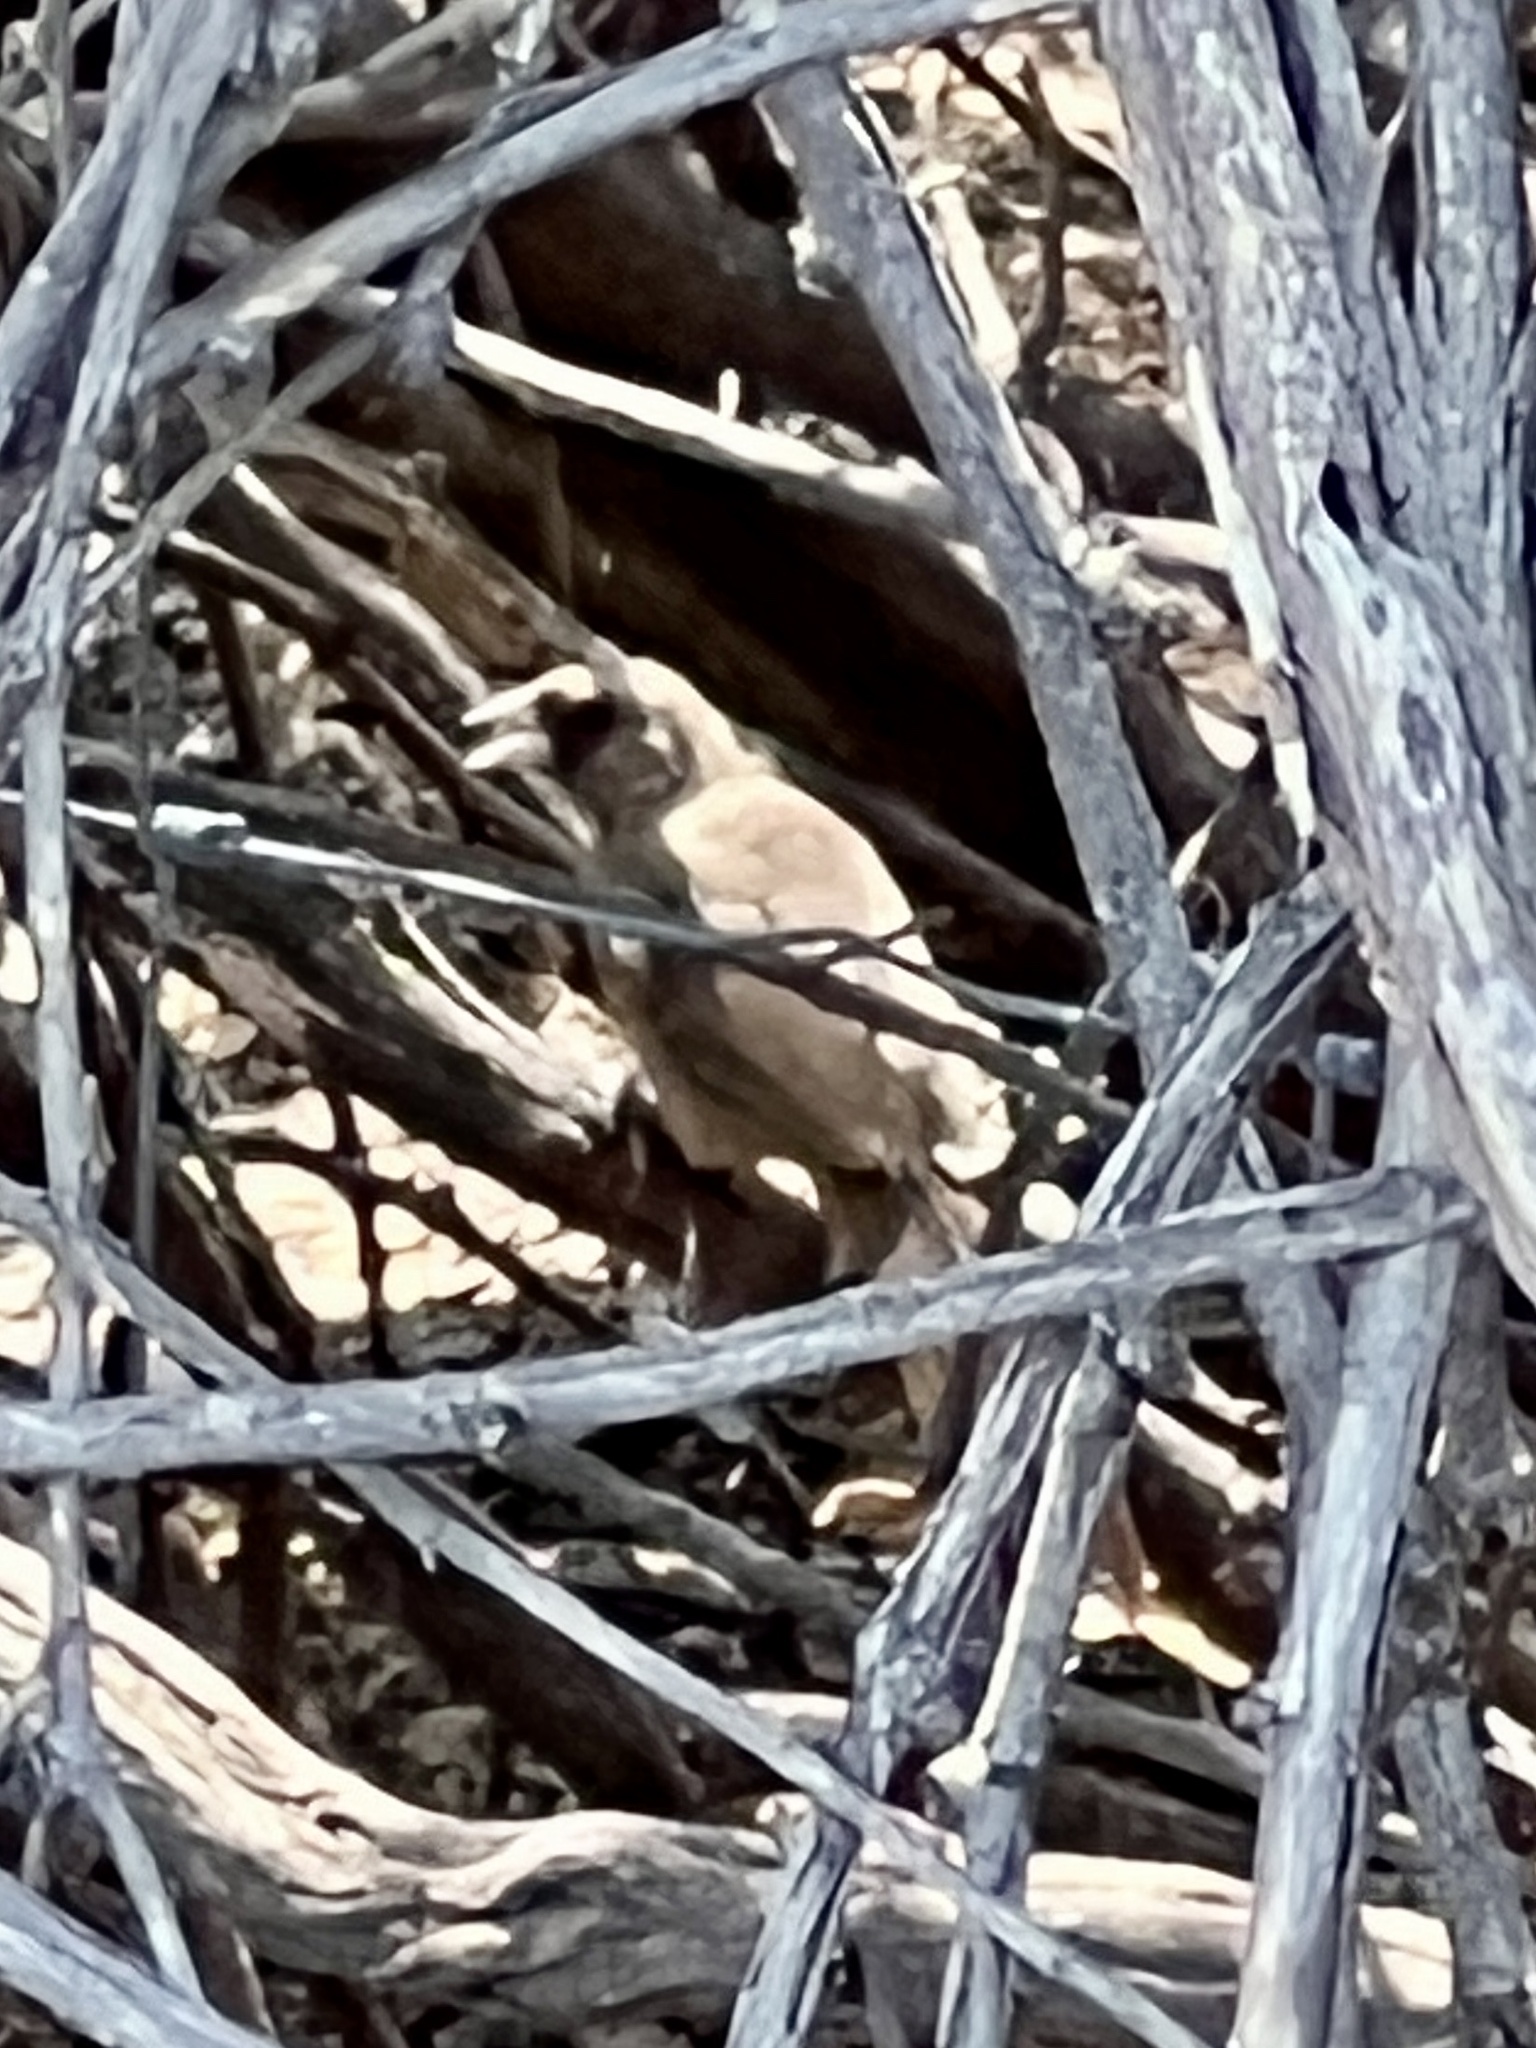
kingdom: Animalia
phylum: Chordata
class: Aves
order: Passeriformes
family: Passerellidae
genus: Melozone
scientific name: Melozone aberti
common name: Abert's towhee
